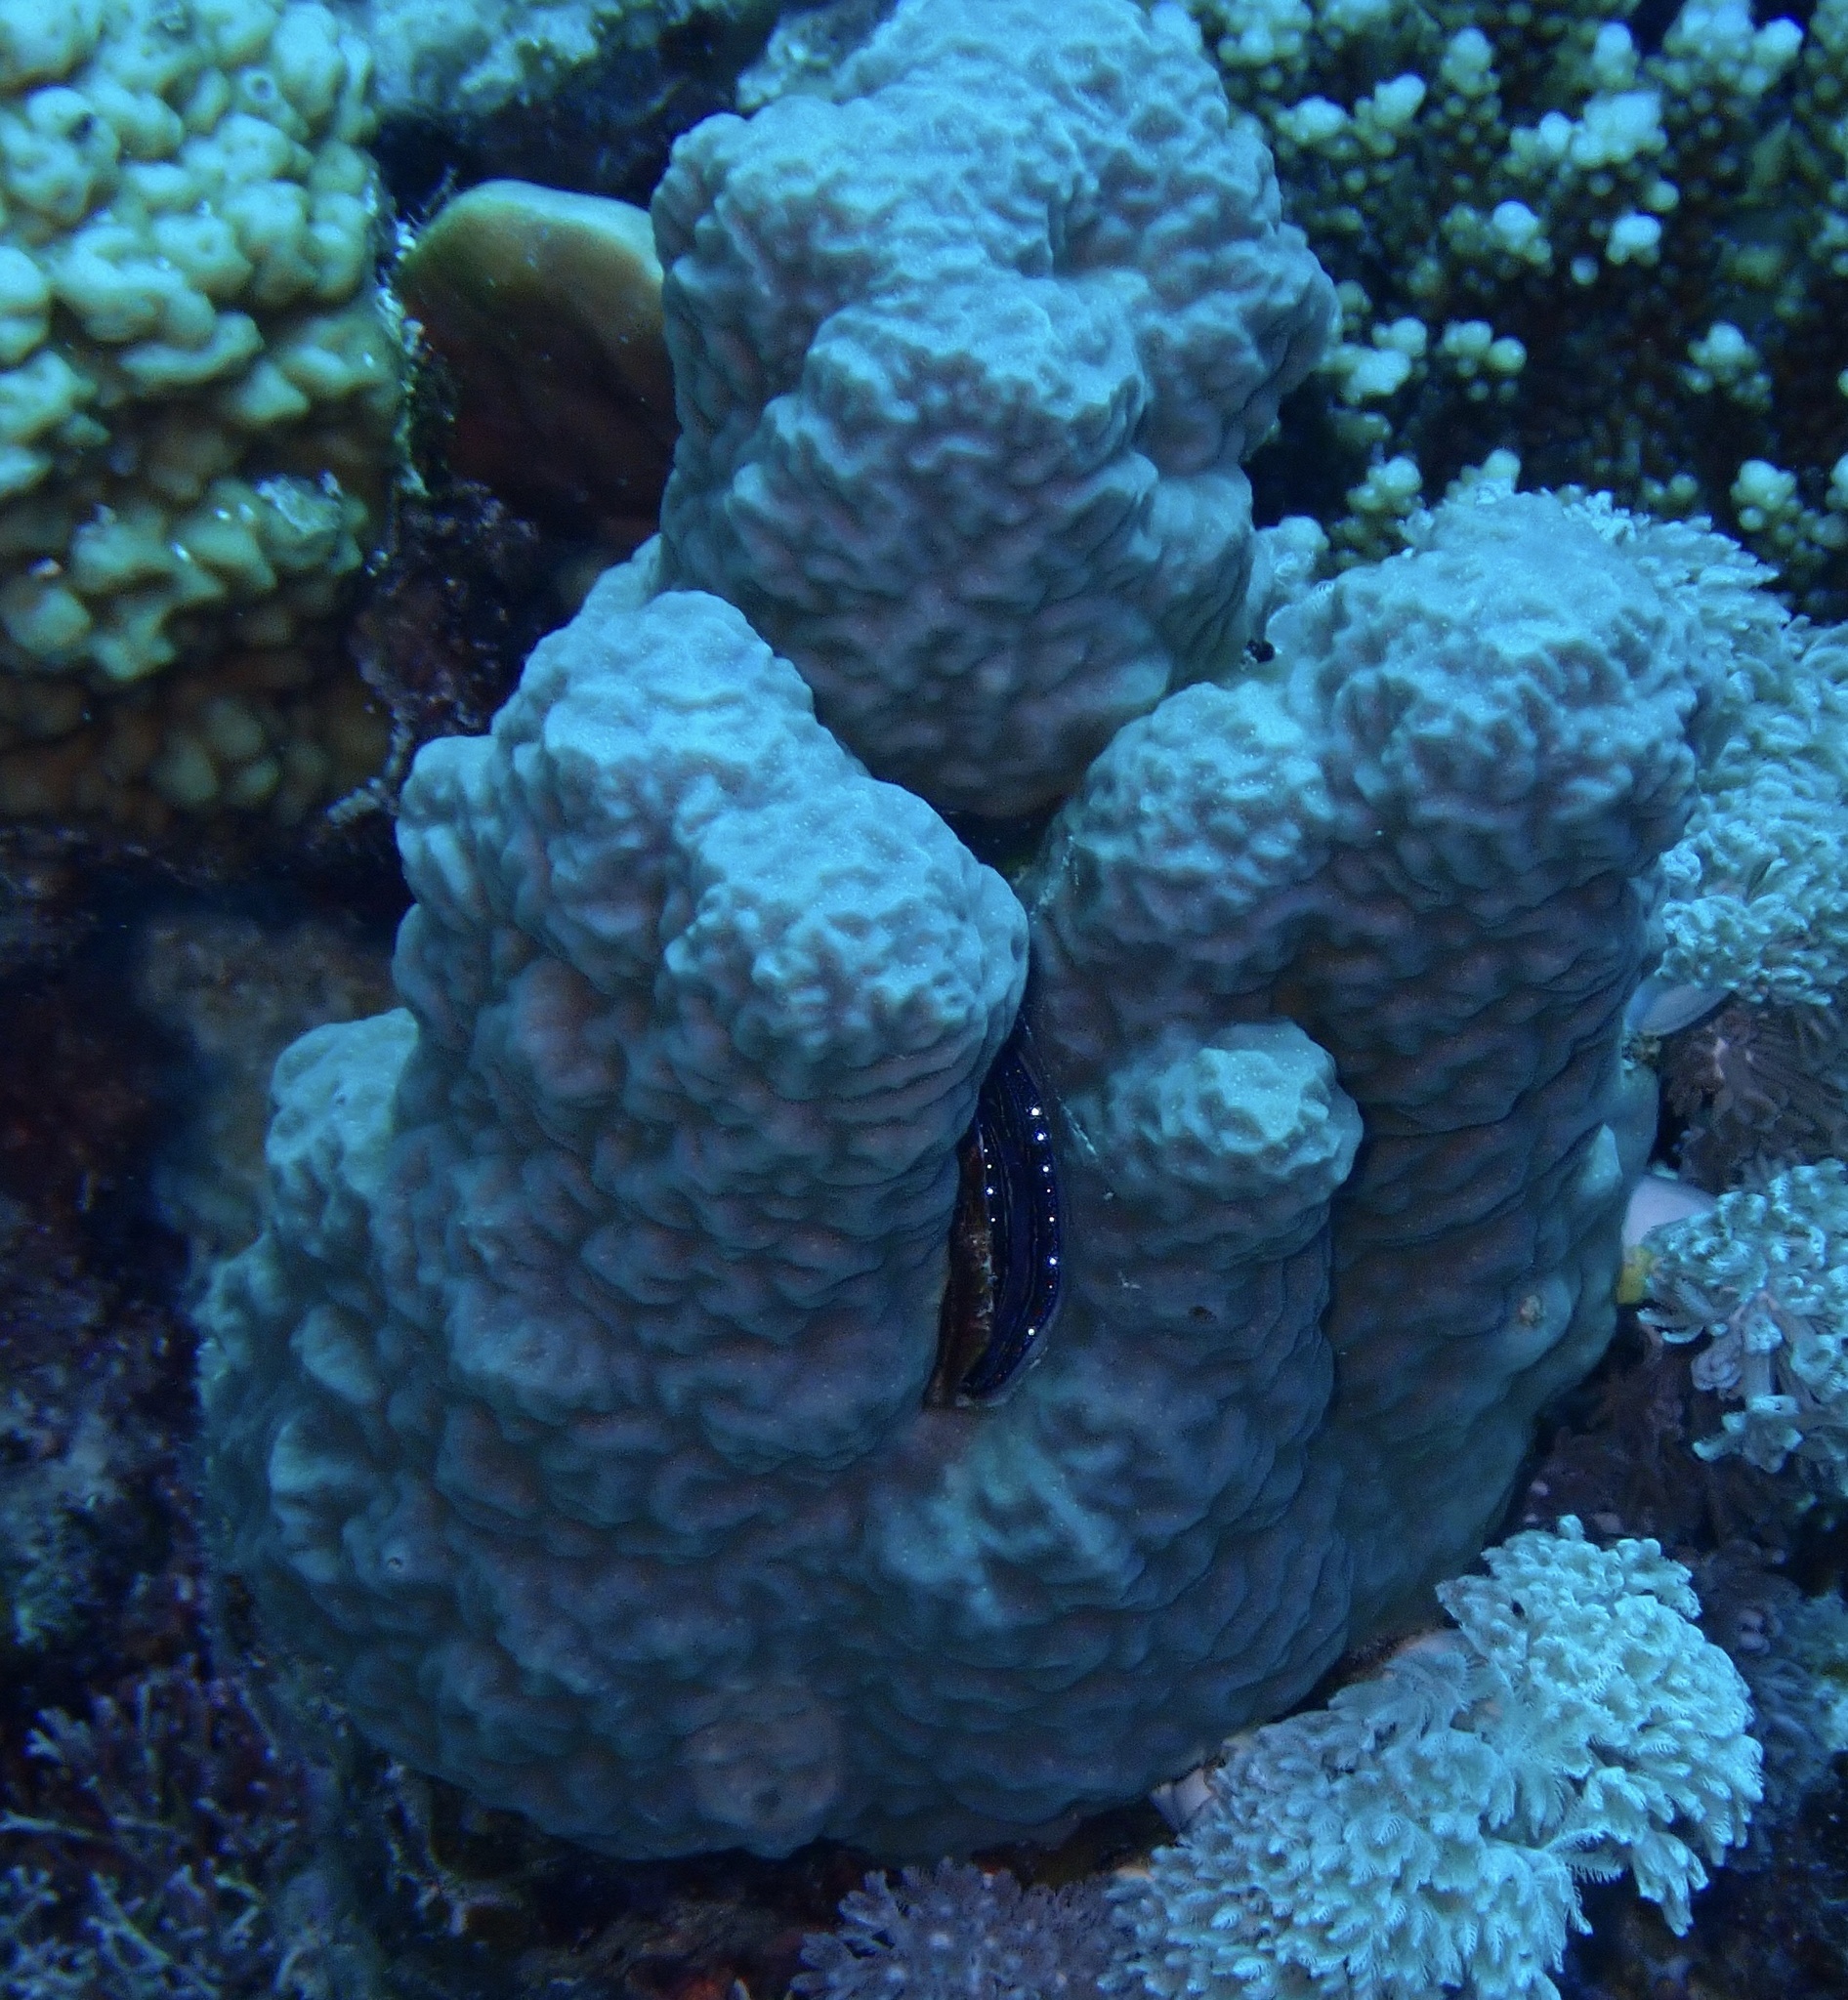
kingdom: Animalia
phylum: Cnidaria
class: Anthozoa
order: Scleractinia
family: Poritidae
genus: Porites
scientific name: Porites rus
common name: Hump coral
